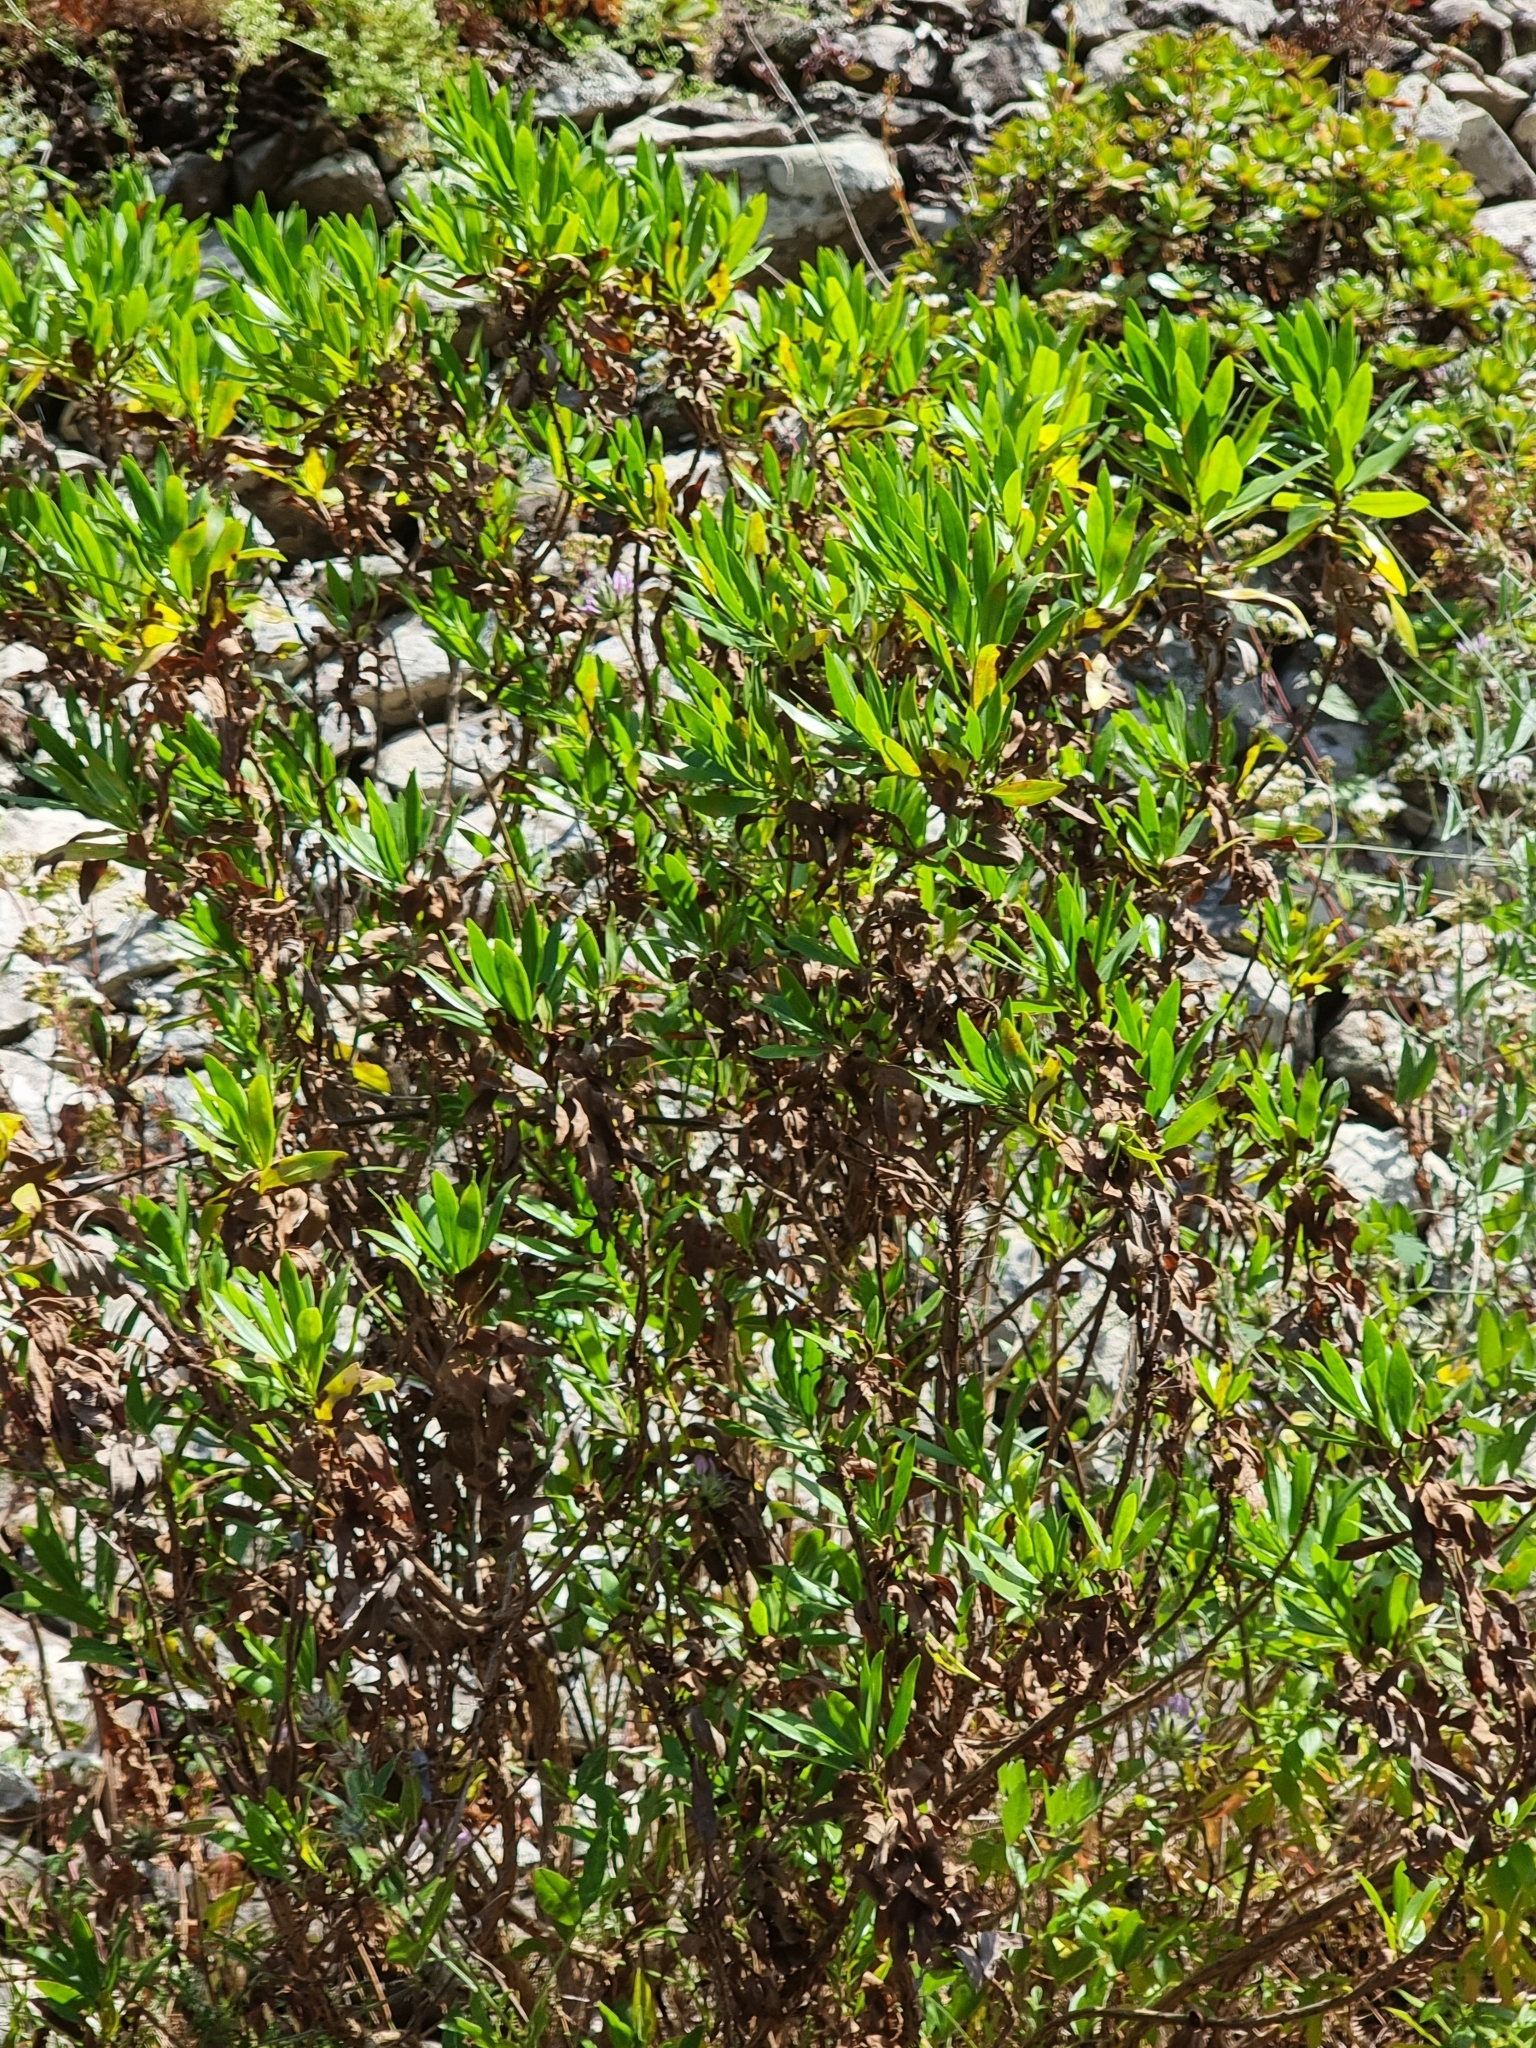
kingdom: Plantae
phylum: Tracheophyta
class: Magnoliopsida
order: Lamiales
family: Plantaginaceae
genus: Globularia
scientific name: Globularia salicina
